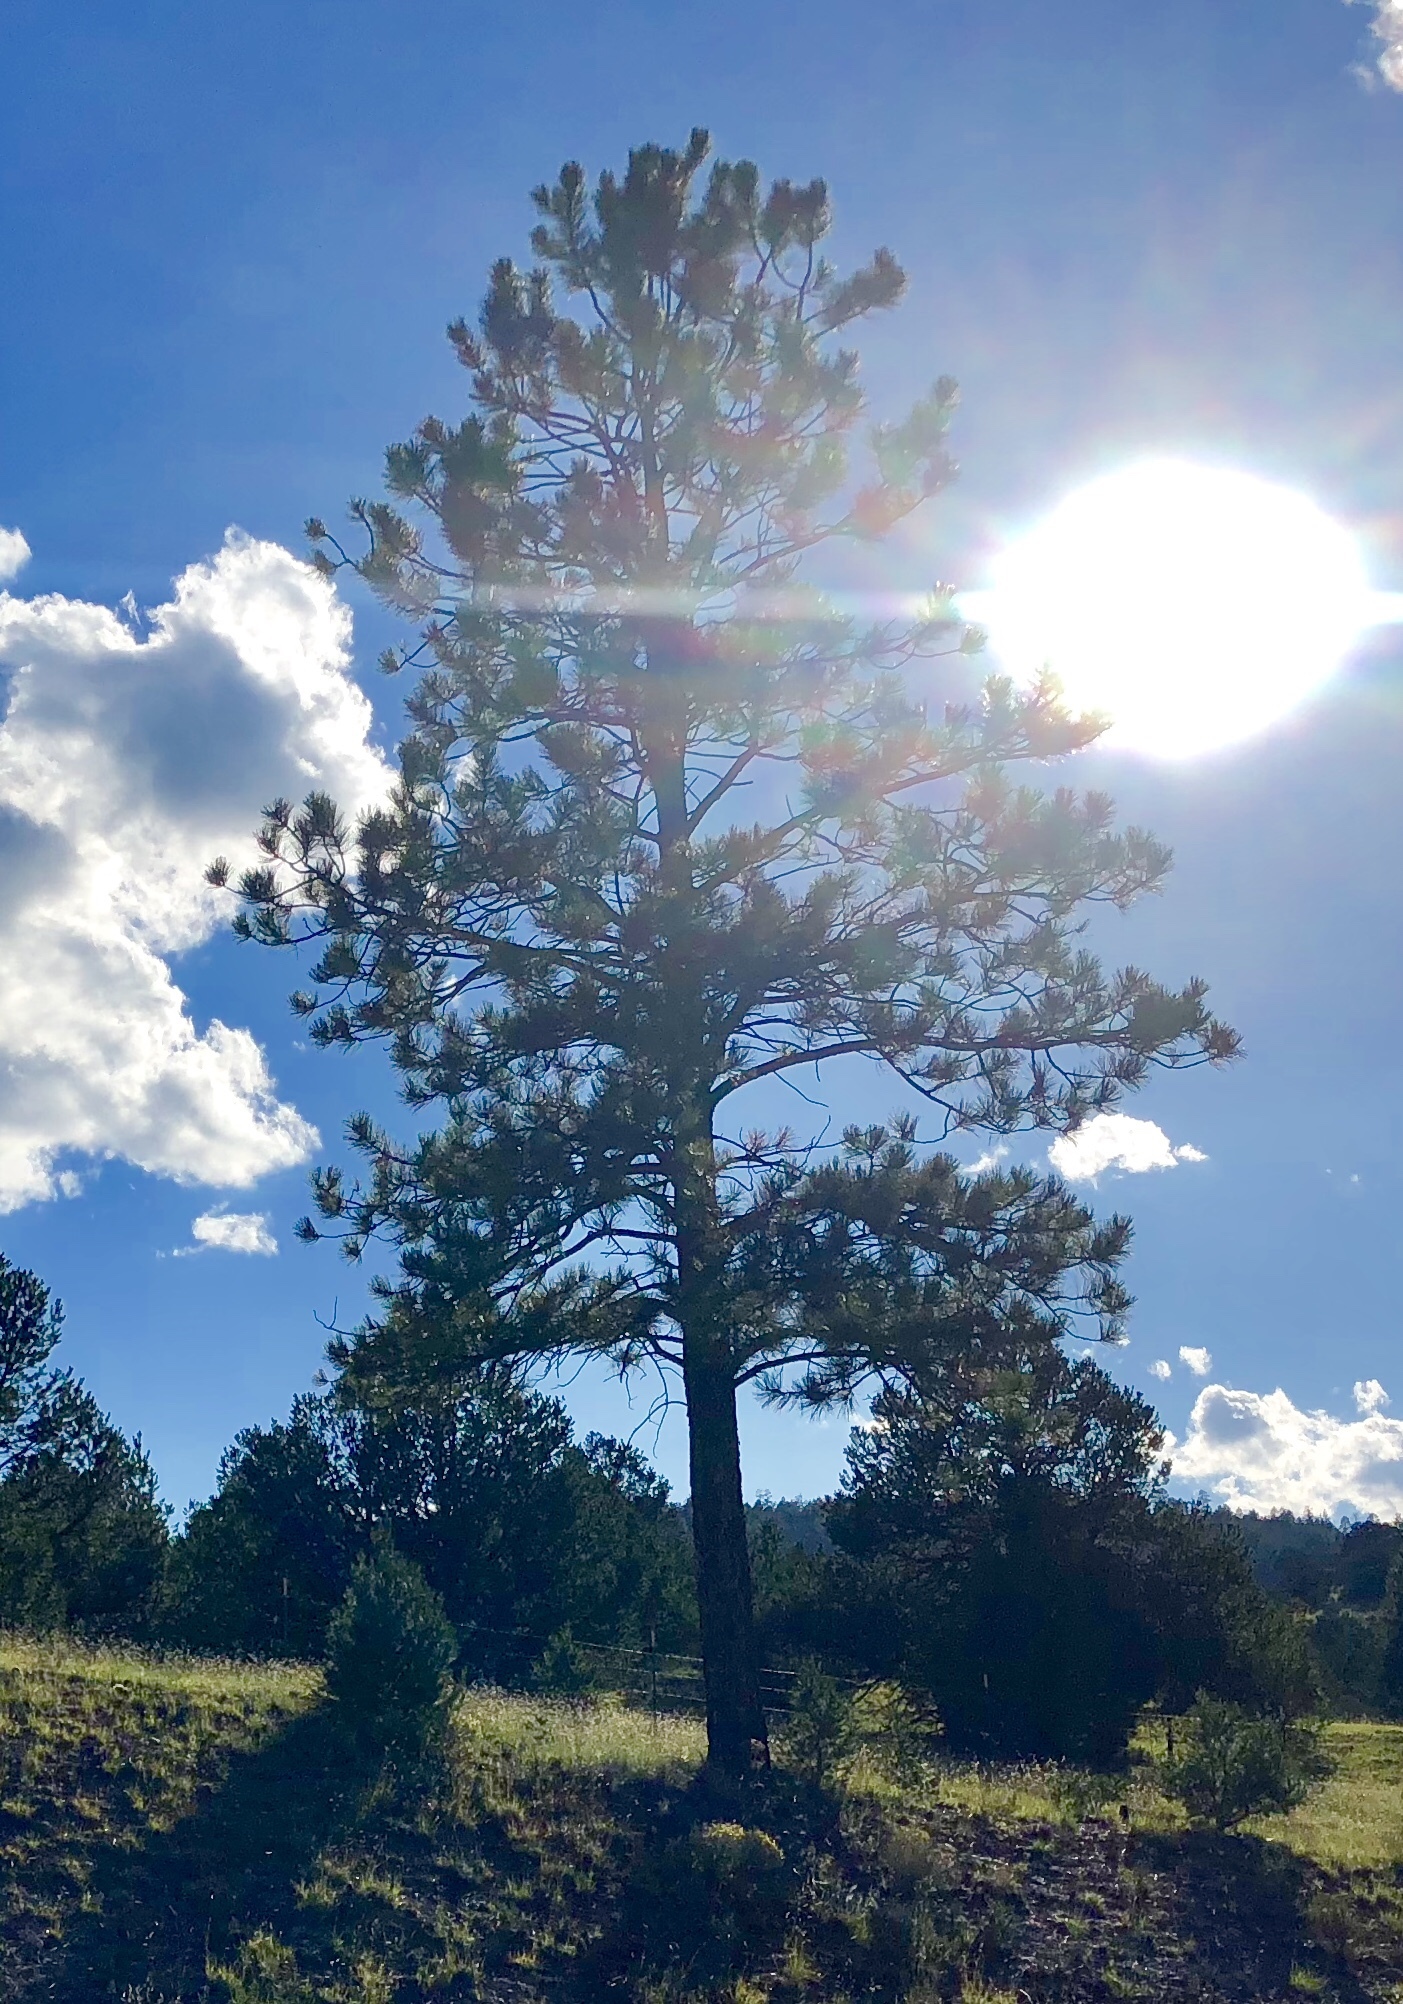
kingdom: Plantae
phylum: Tracheophyta
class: Pinopsida
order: Pinales
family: Pinaceae
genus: Pinus
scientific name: Pinus ponderosa
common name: Western yellow-pine
